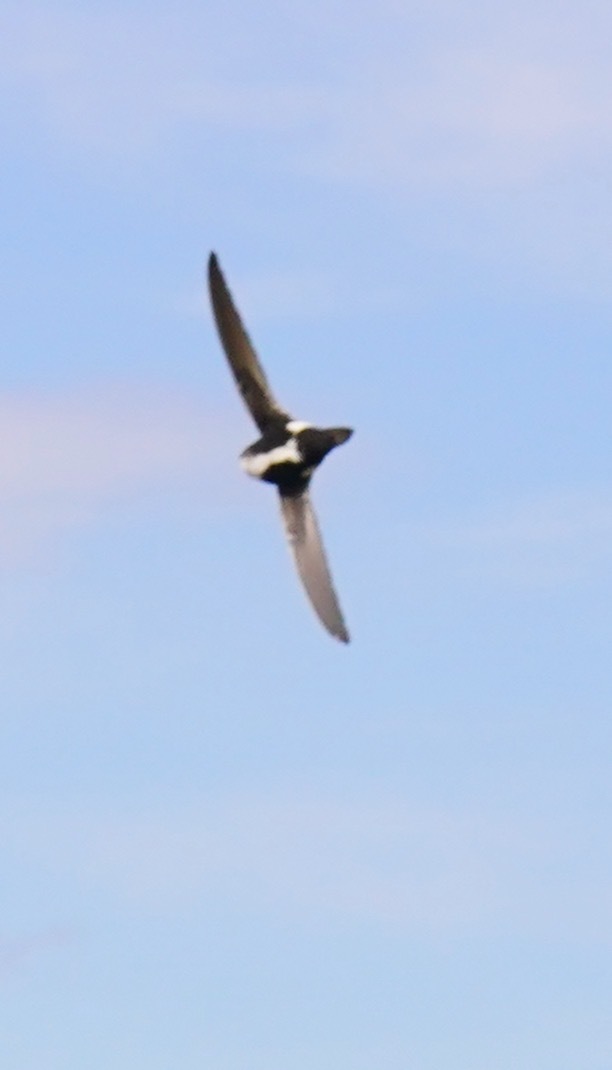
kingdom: Animalia
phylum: Chordata
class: Aves
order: Apodiformes
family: Apodidae
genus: Aeronautes
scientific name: Aeronautes saxatalis
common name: White-throated swift
